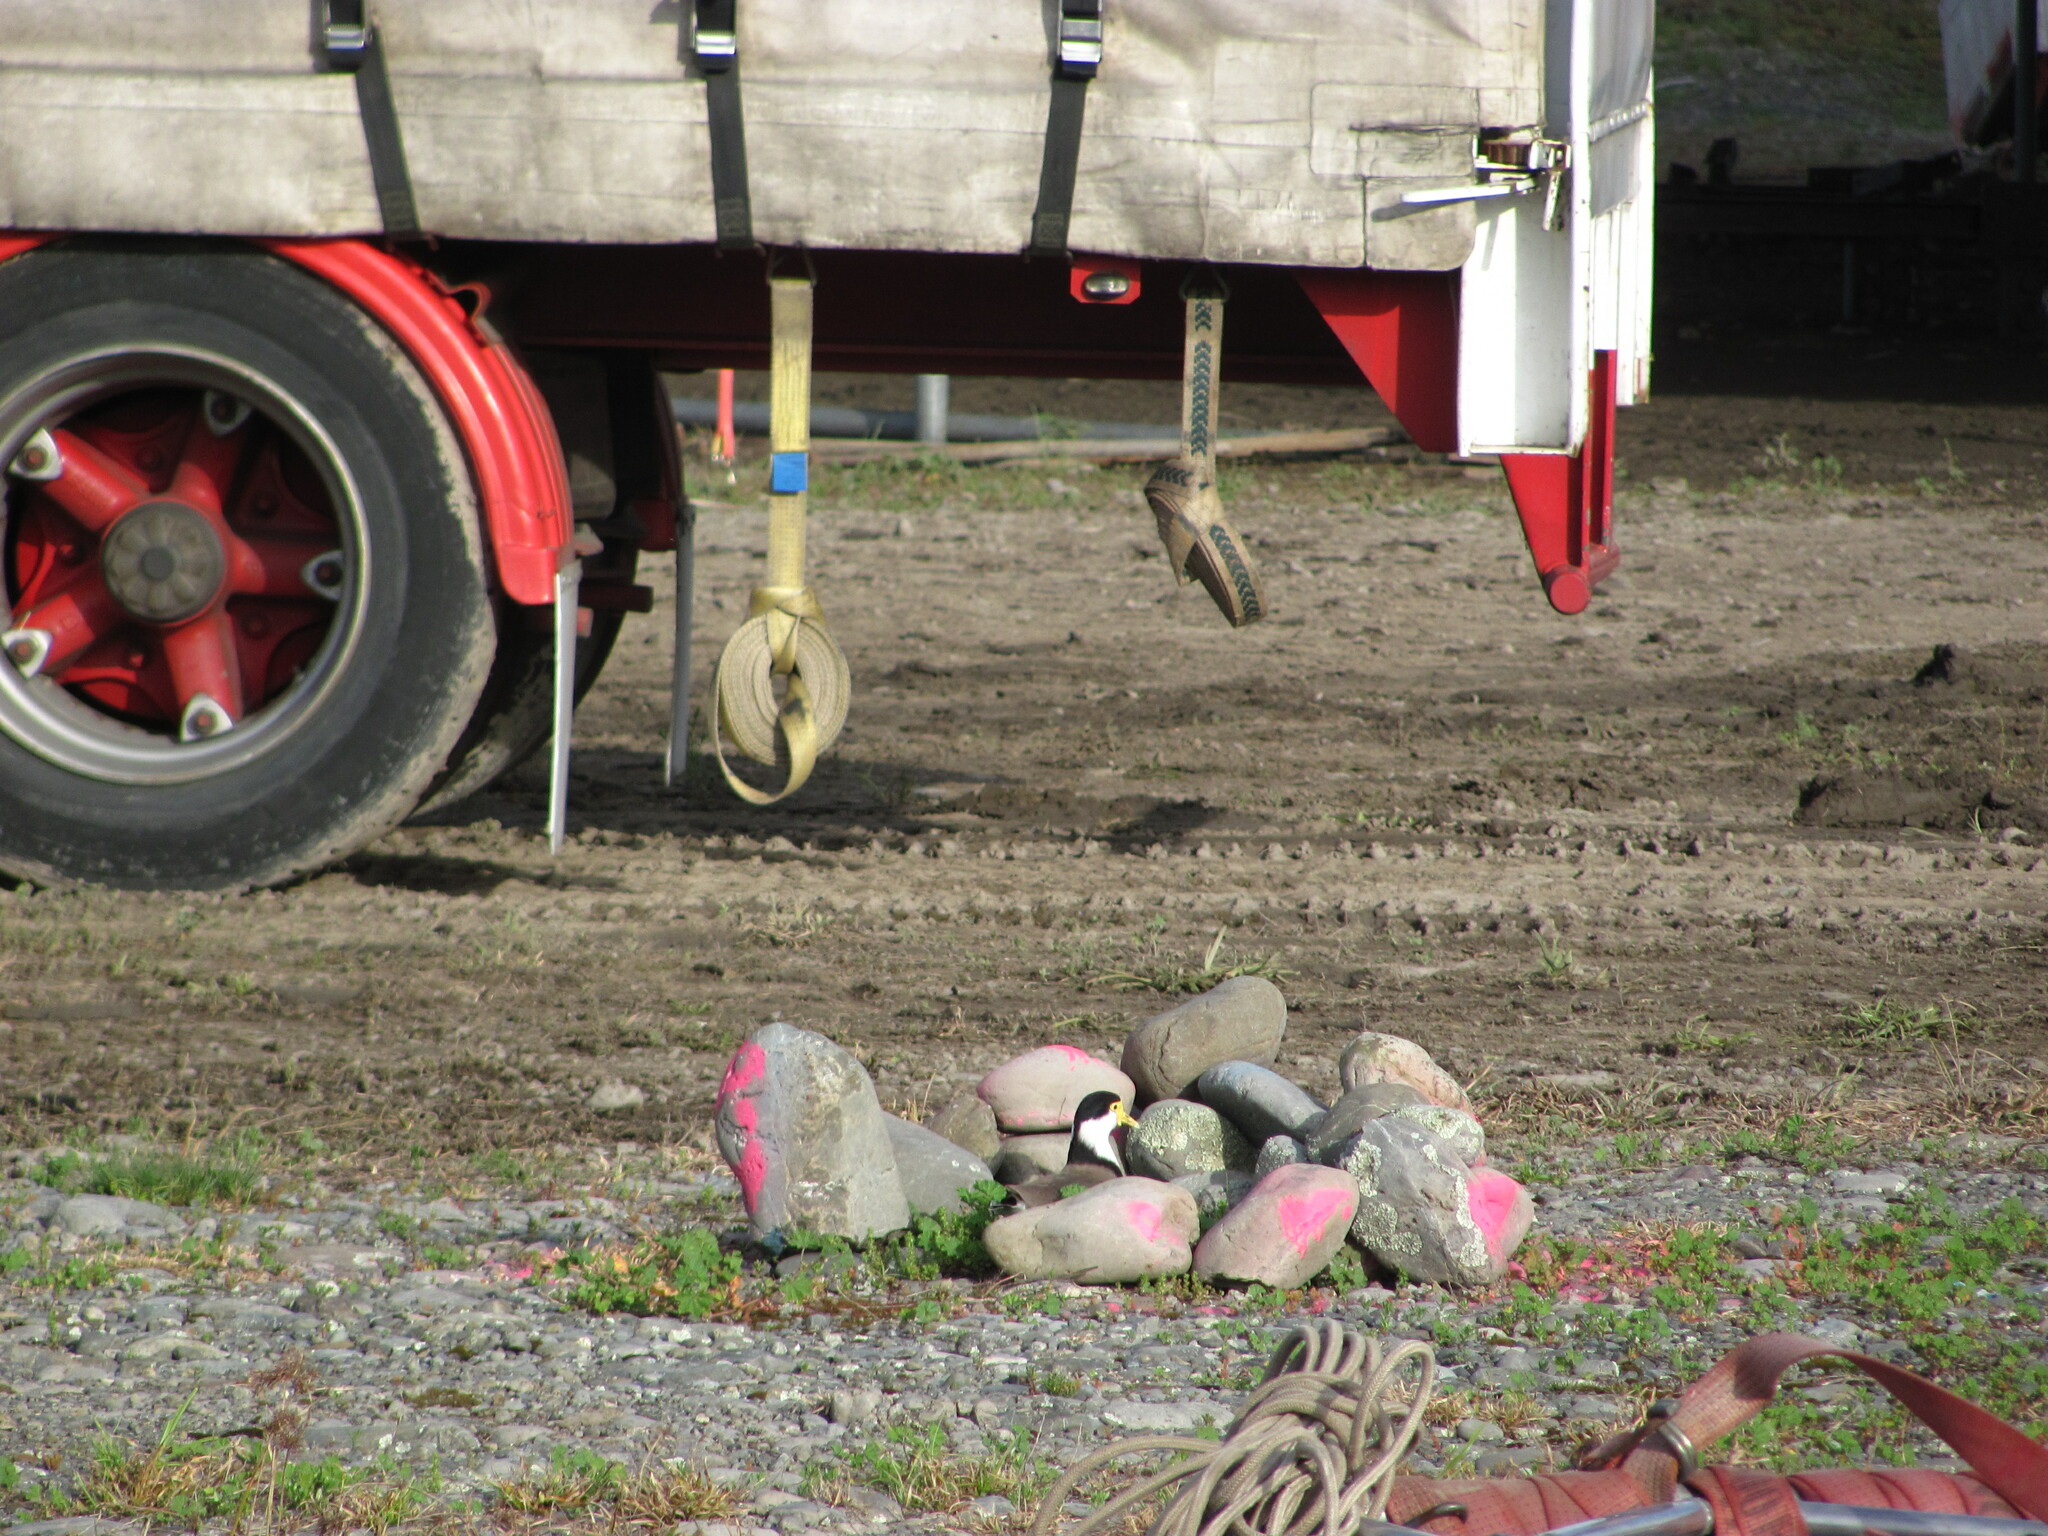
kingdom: Animalia
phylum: Chordata
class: Aves
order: Charadriiformes
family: Charadriidae
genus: Vanellus
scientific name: Vanellus miles
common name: Masked lapwing
